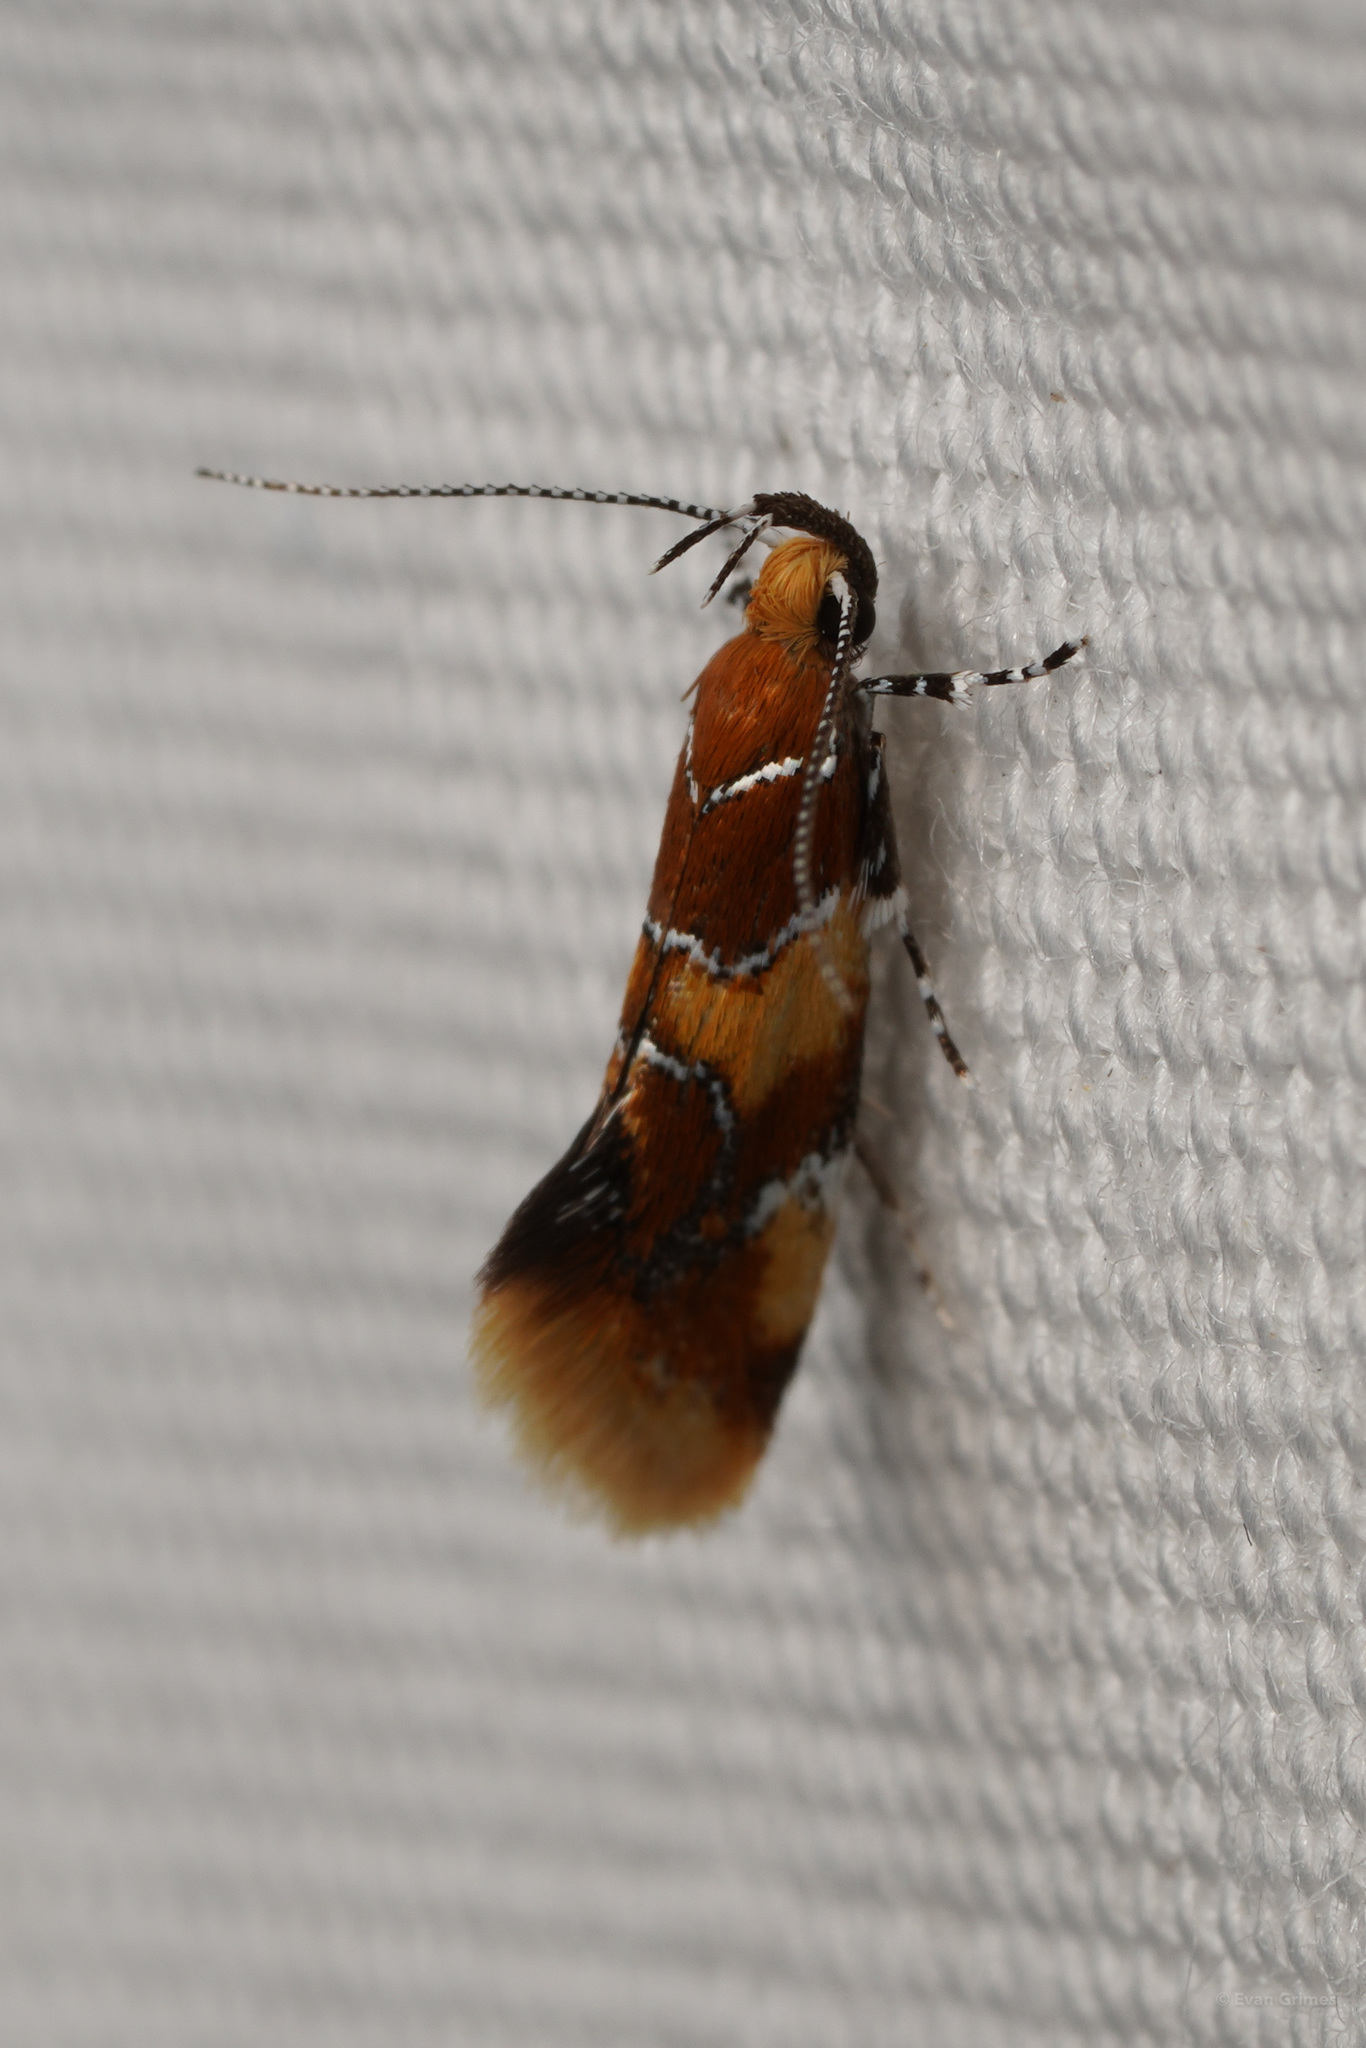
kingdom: Animalia
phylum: Arthropoda
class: Insecta
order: Lepidoptera
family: Oecophoridae
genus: Callima
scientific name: Callima argenticinctella
